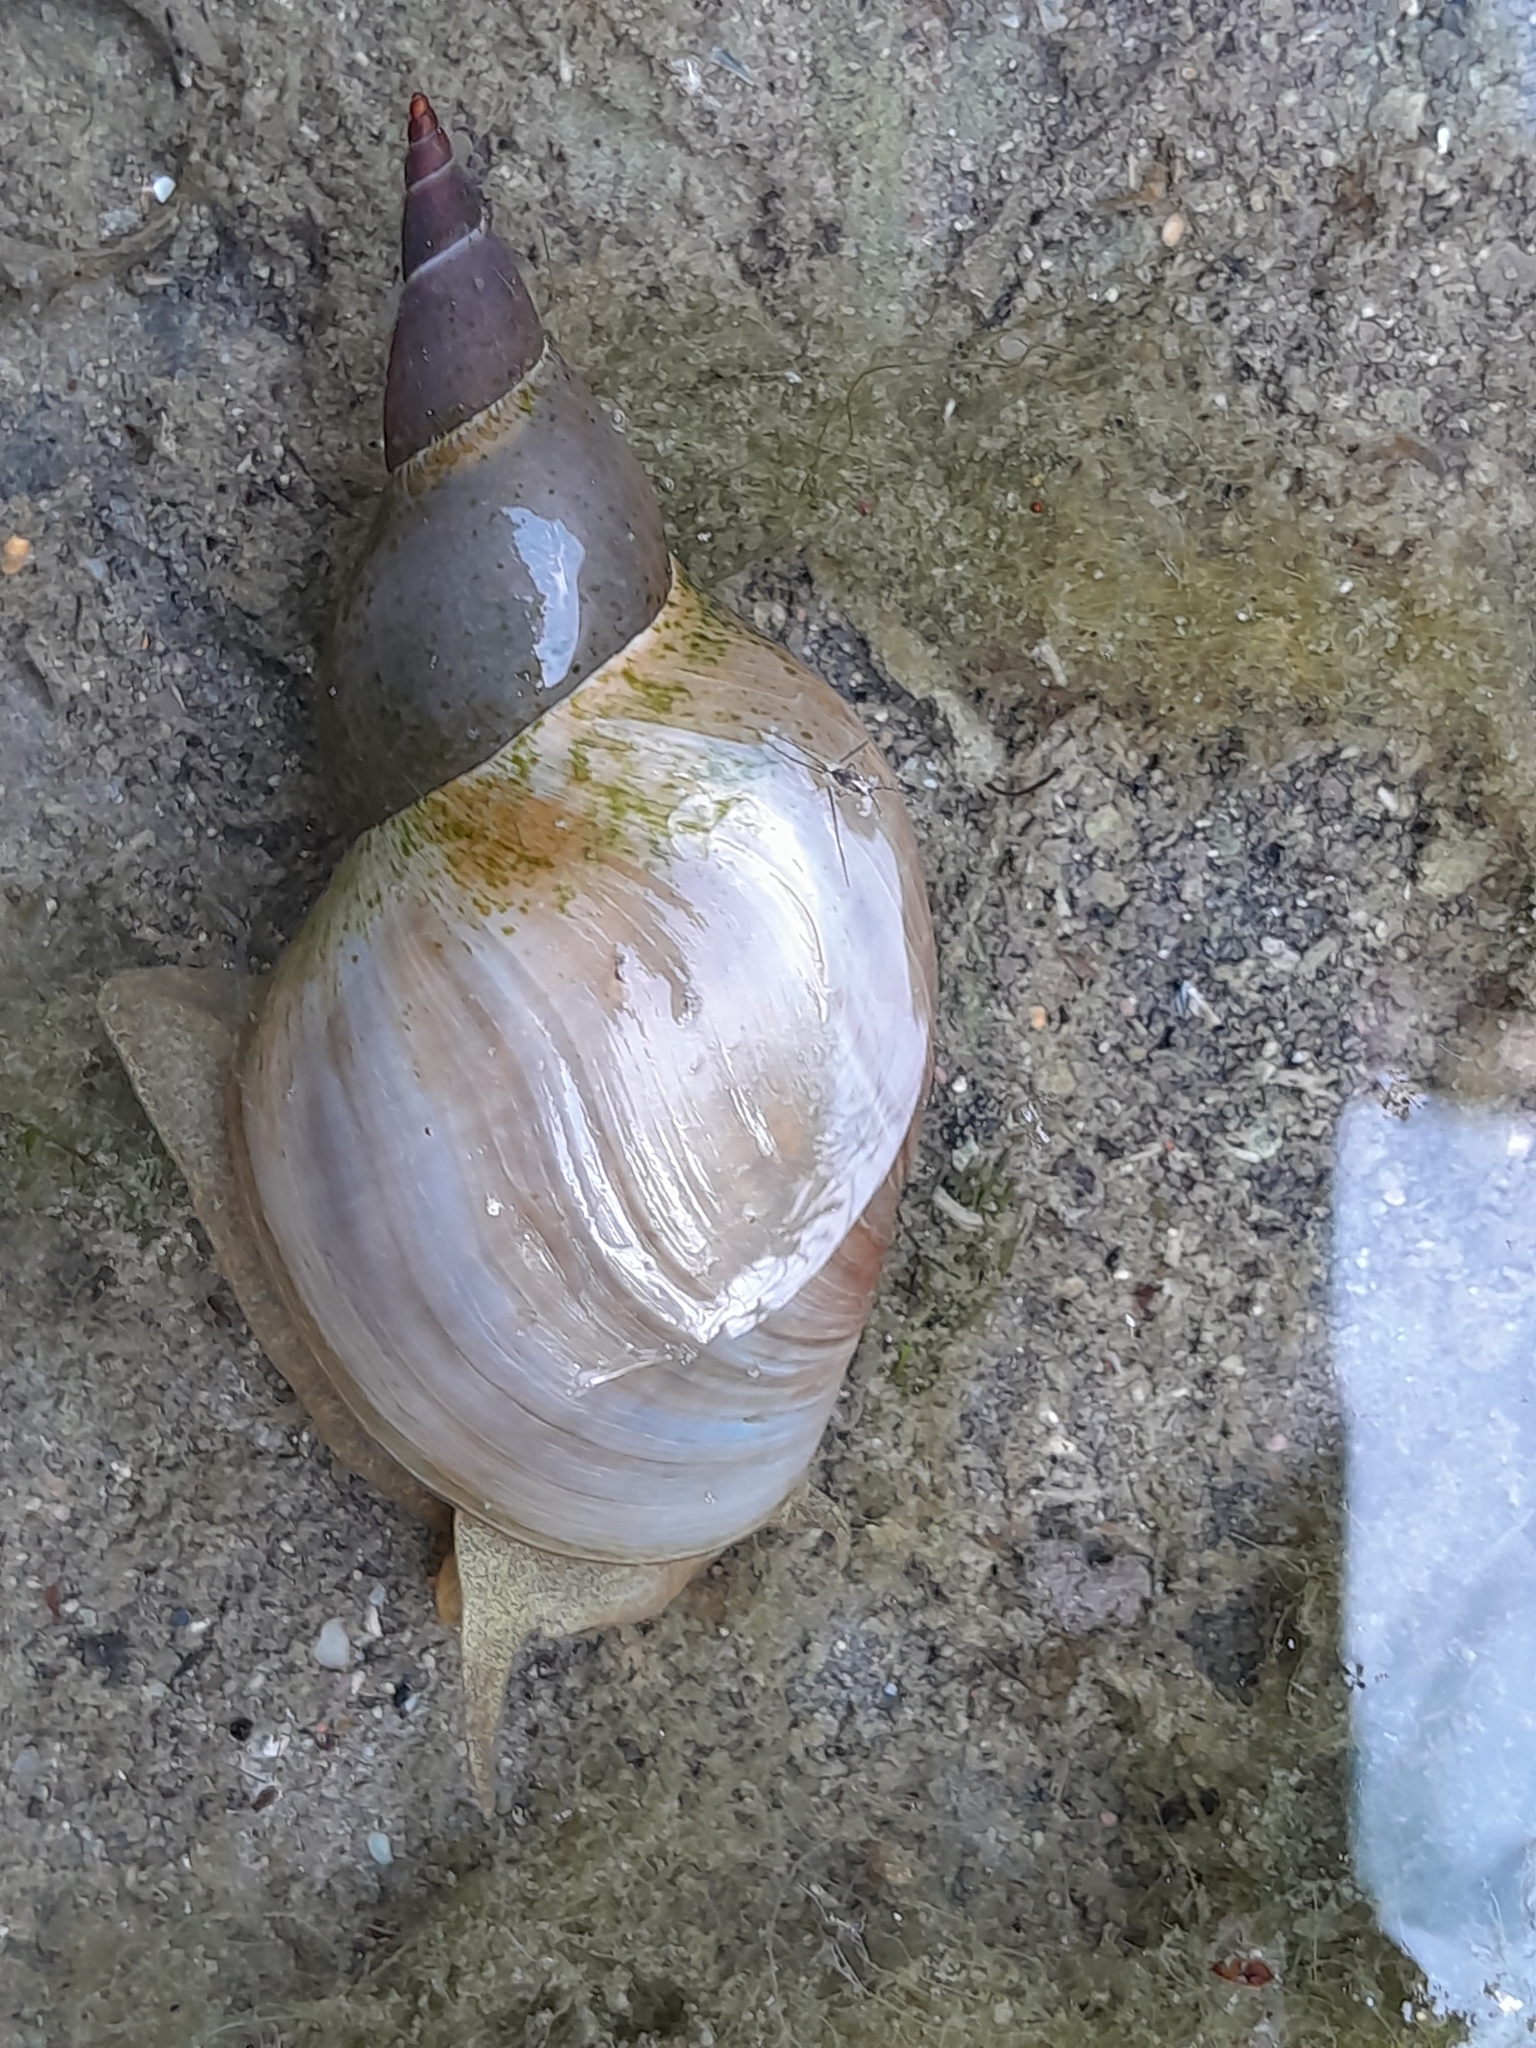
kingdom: Animalia
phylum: Mollusca
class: Gastropoda
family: Lymnaeidae
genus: Lymnaea
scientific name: Lymnaea stagnalis
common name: Great pond snail
